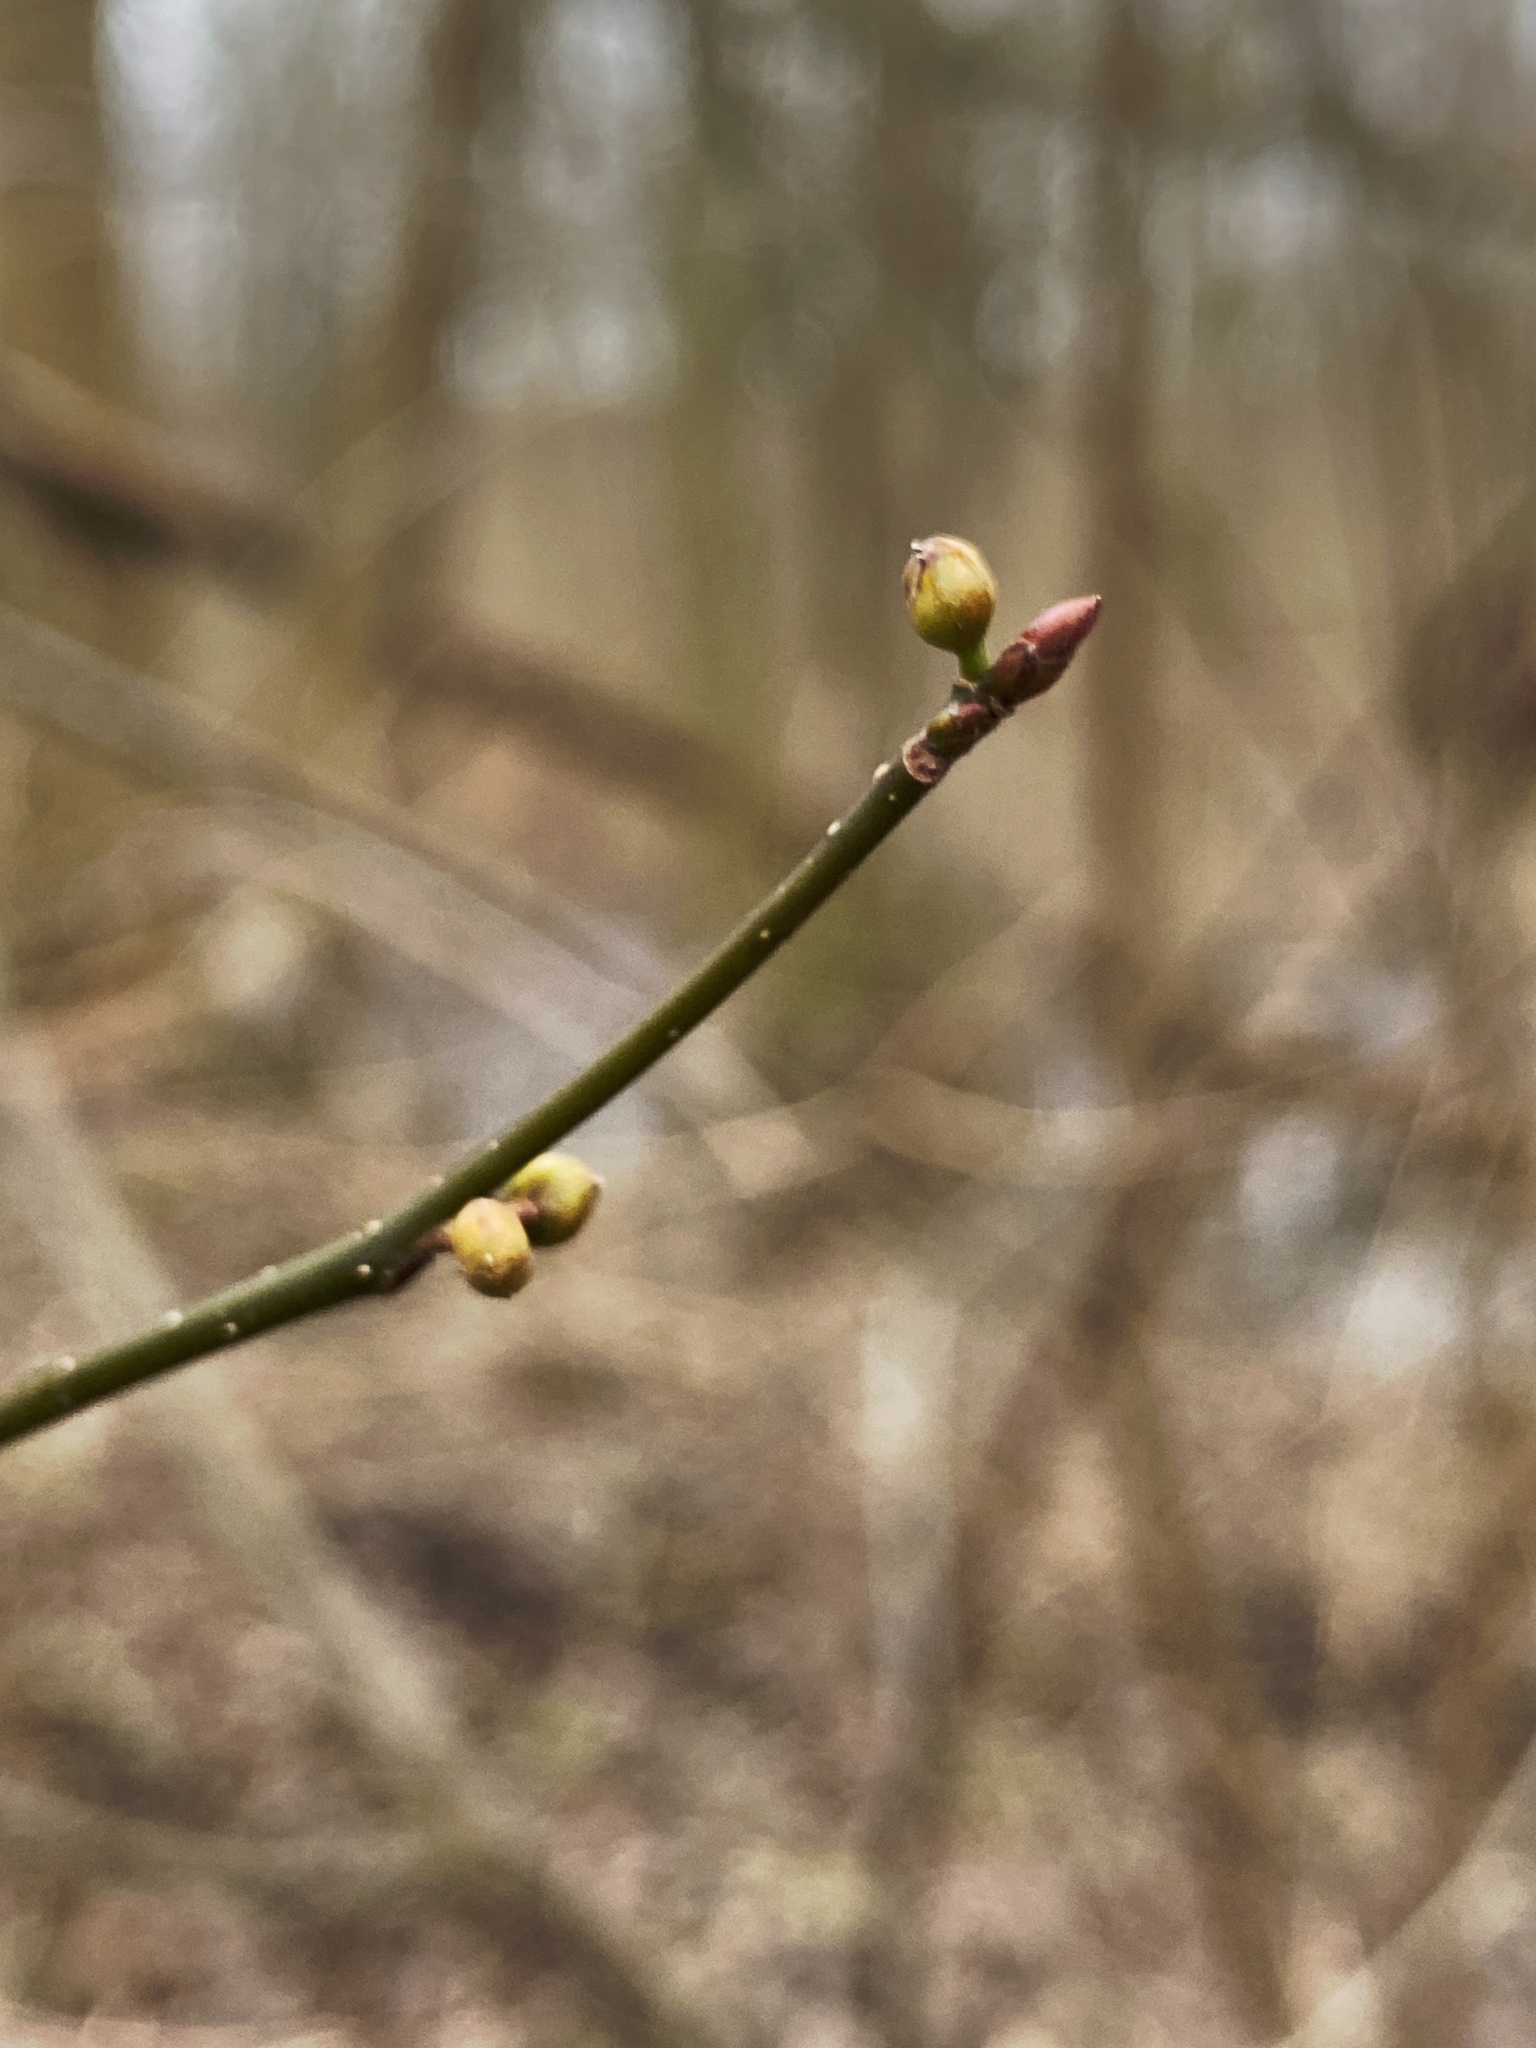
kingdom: Plantae
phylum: Tracheophyta
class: Magnoliopsida
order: Laurales
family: Lauraceae
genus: Lindera
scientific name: Lindera benzoin
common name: Spicebush
